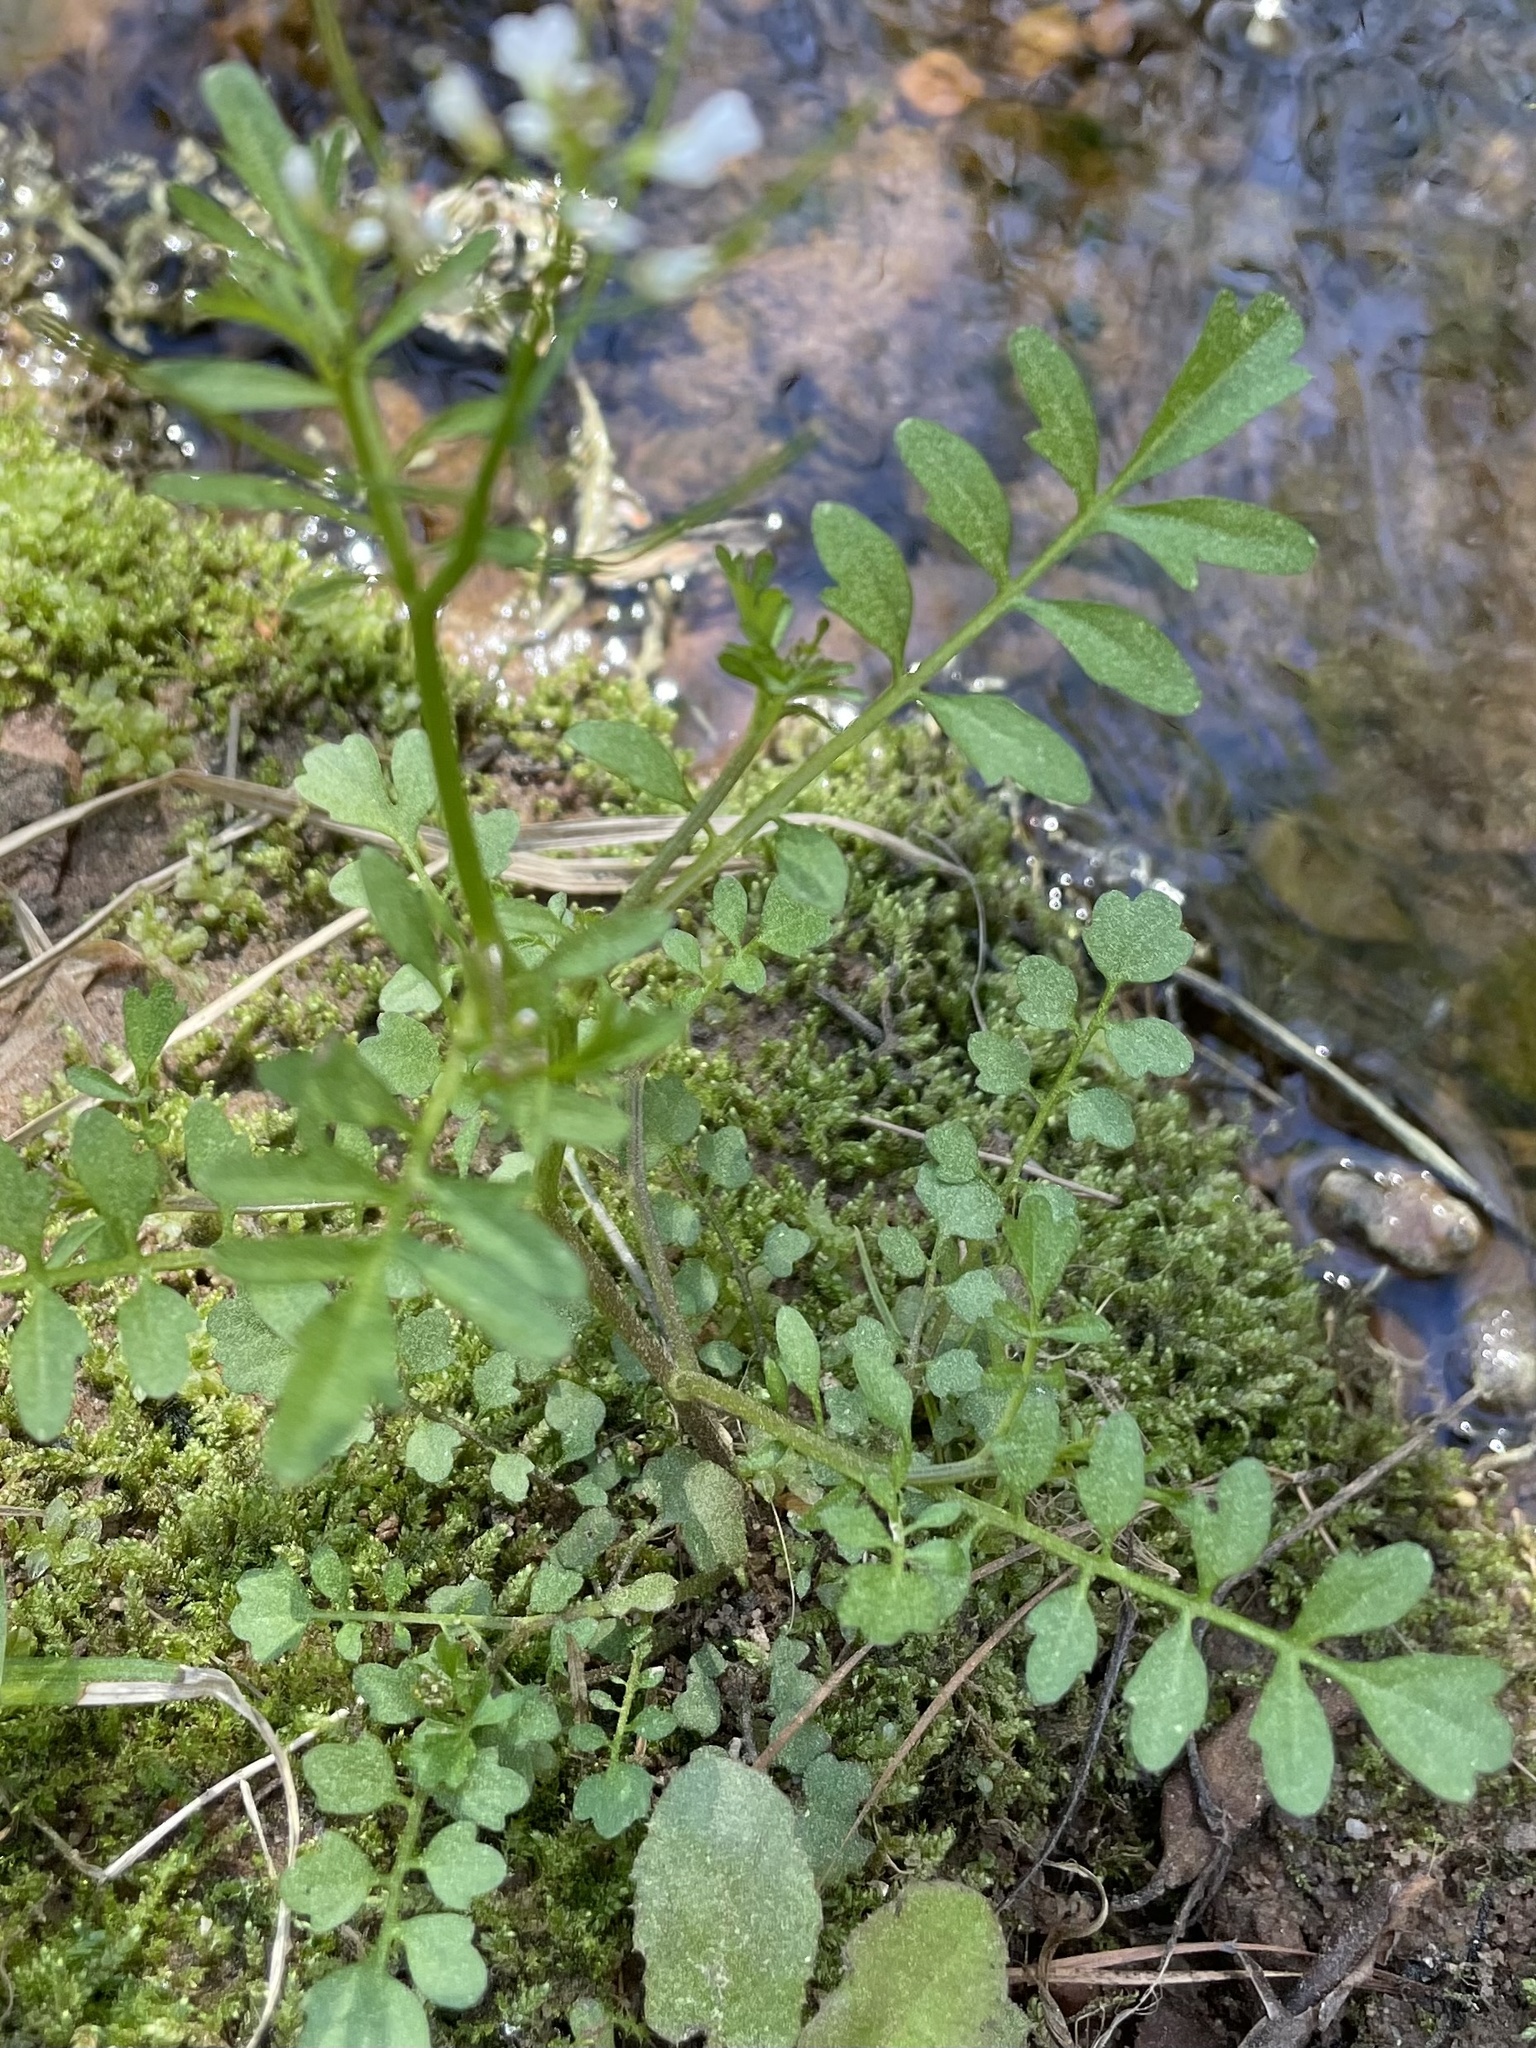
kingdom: Plantae
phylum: Tracheophyta
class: Magnoliopsida
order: Brassicales
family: Brassicaceae
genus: Cardamine
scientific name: Cardamine occulta
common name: Asian wavy bittercress
